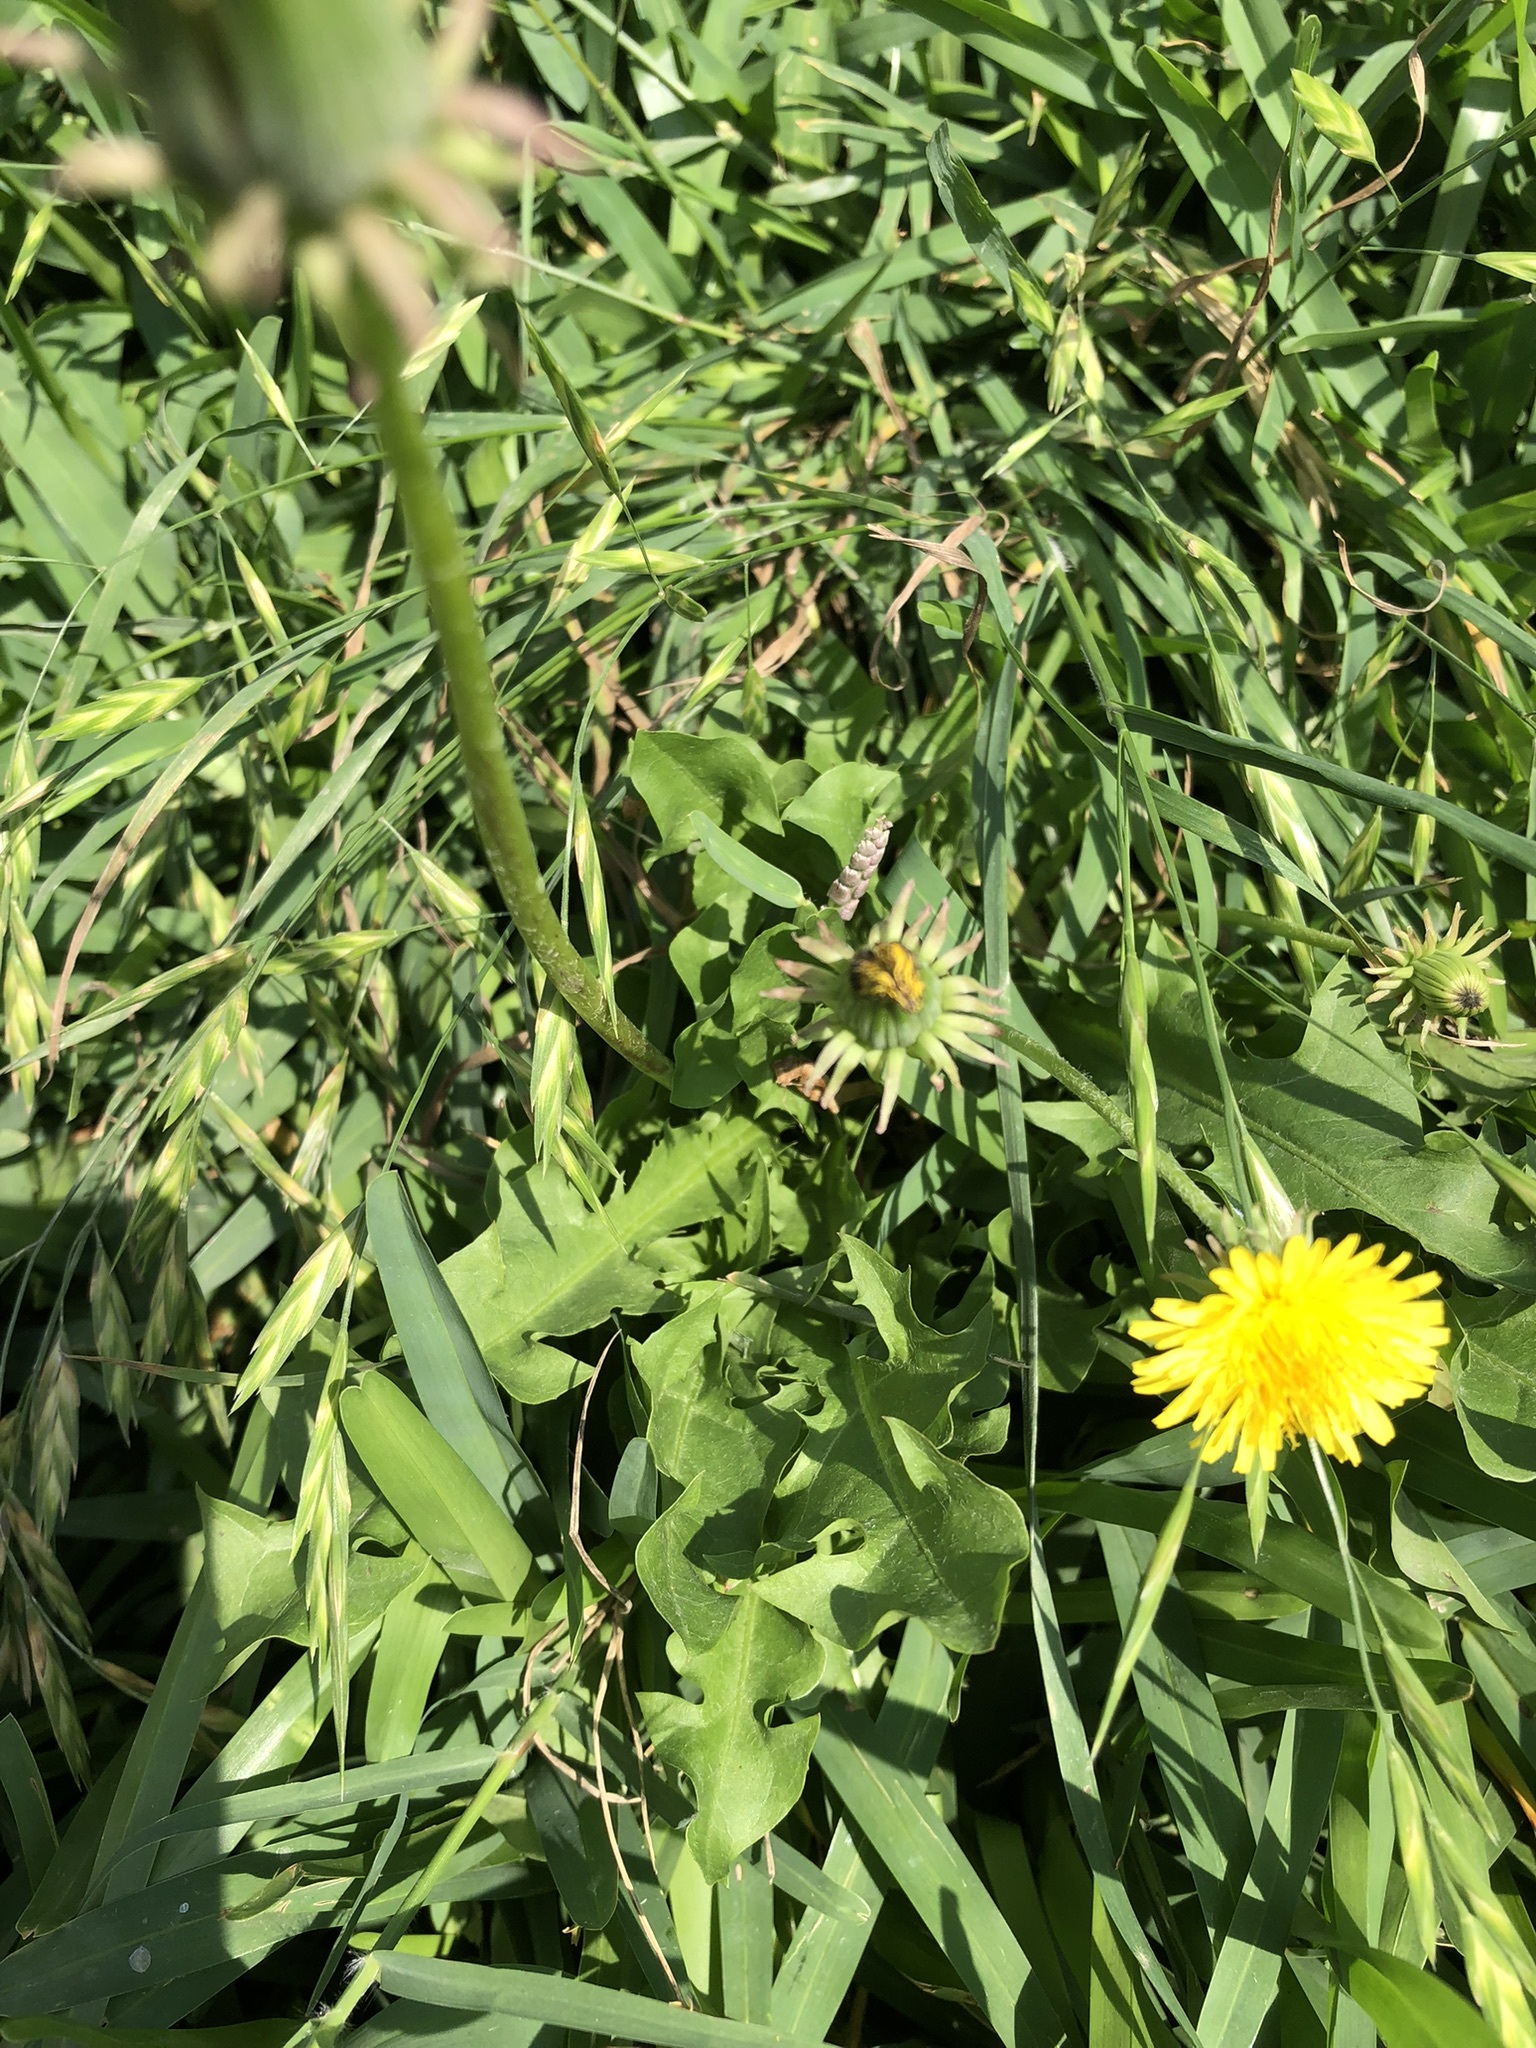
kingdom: Plantae
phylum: Tracheophyta
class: Magnoliopsida
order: Asterales
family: Asteraceae
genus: Taraxacum
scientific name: Taraxacum officinale
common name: Common dandelion
